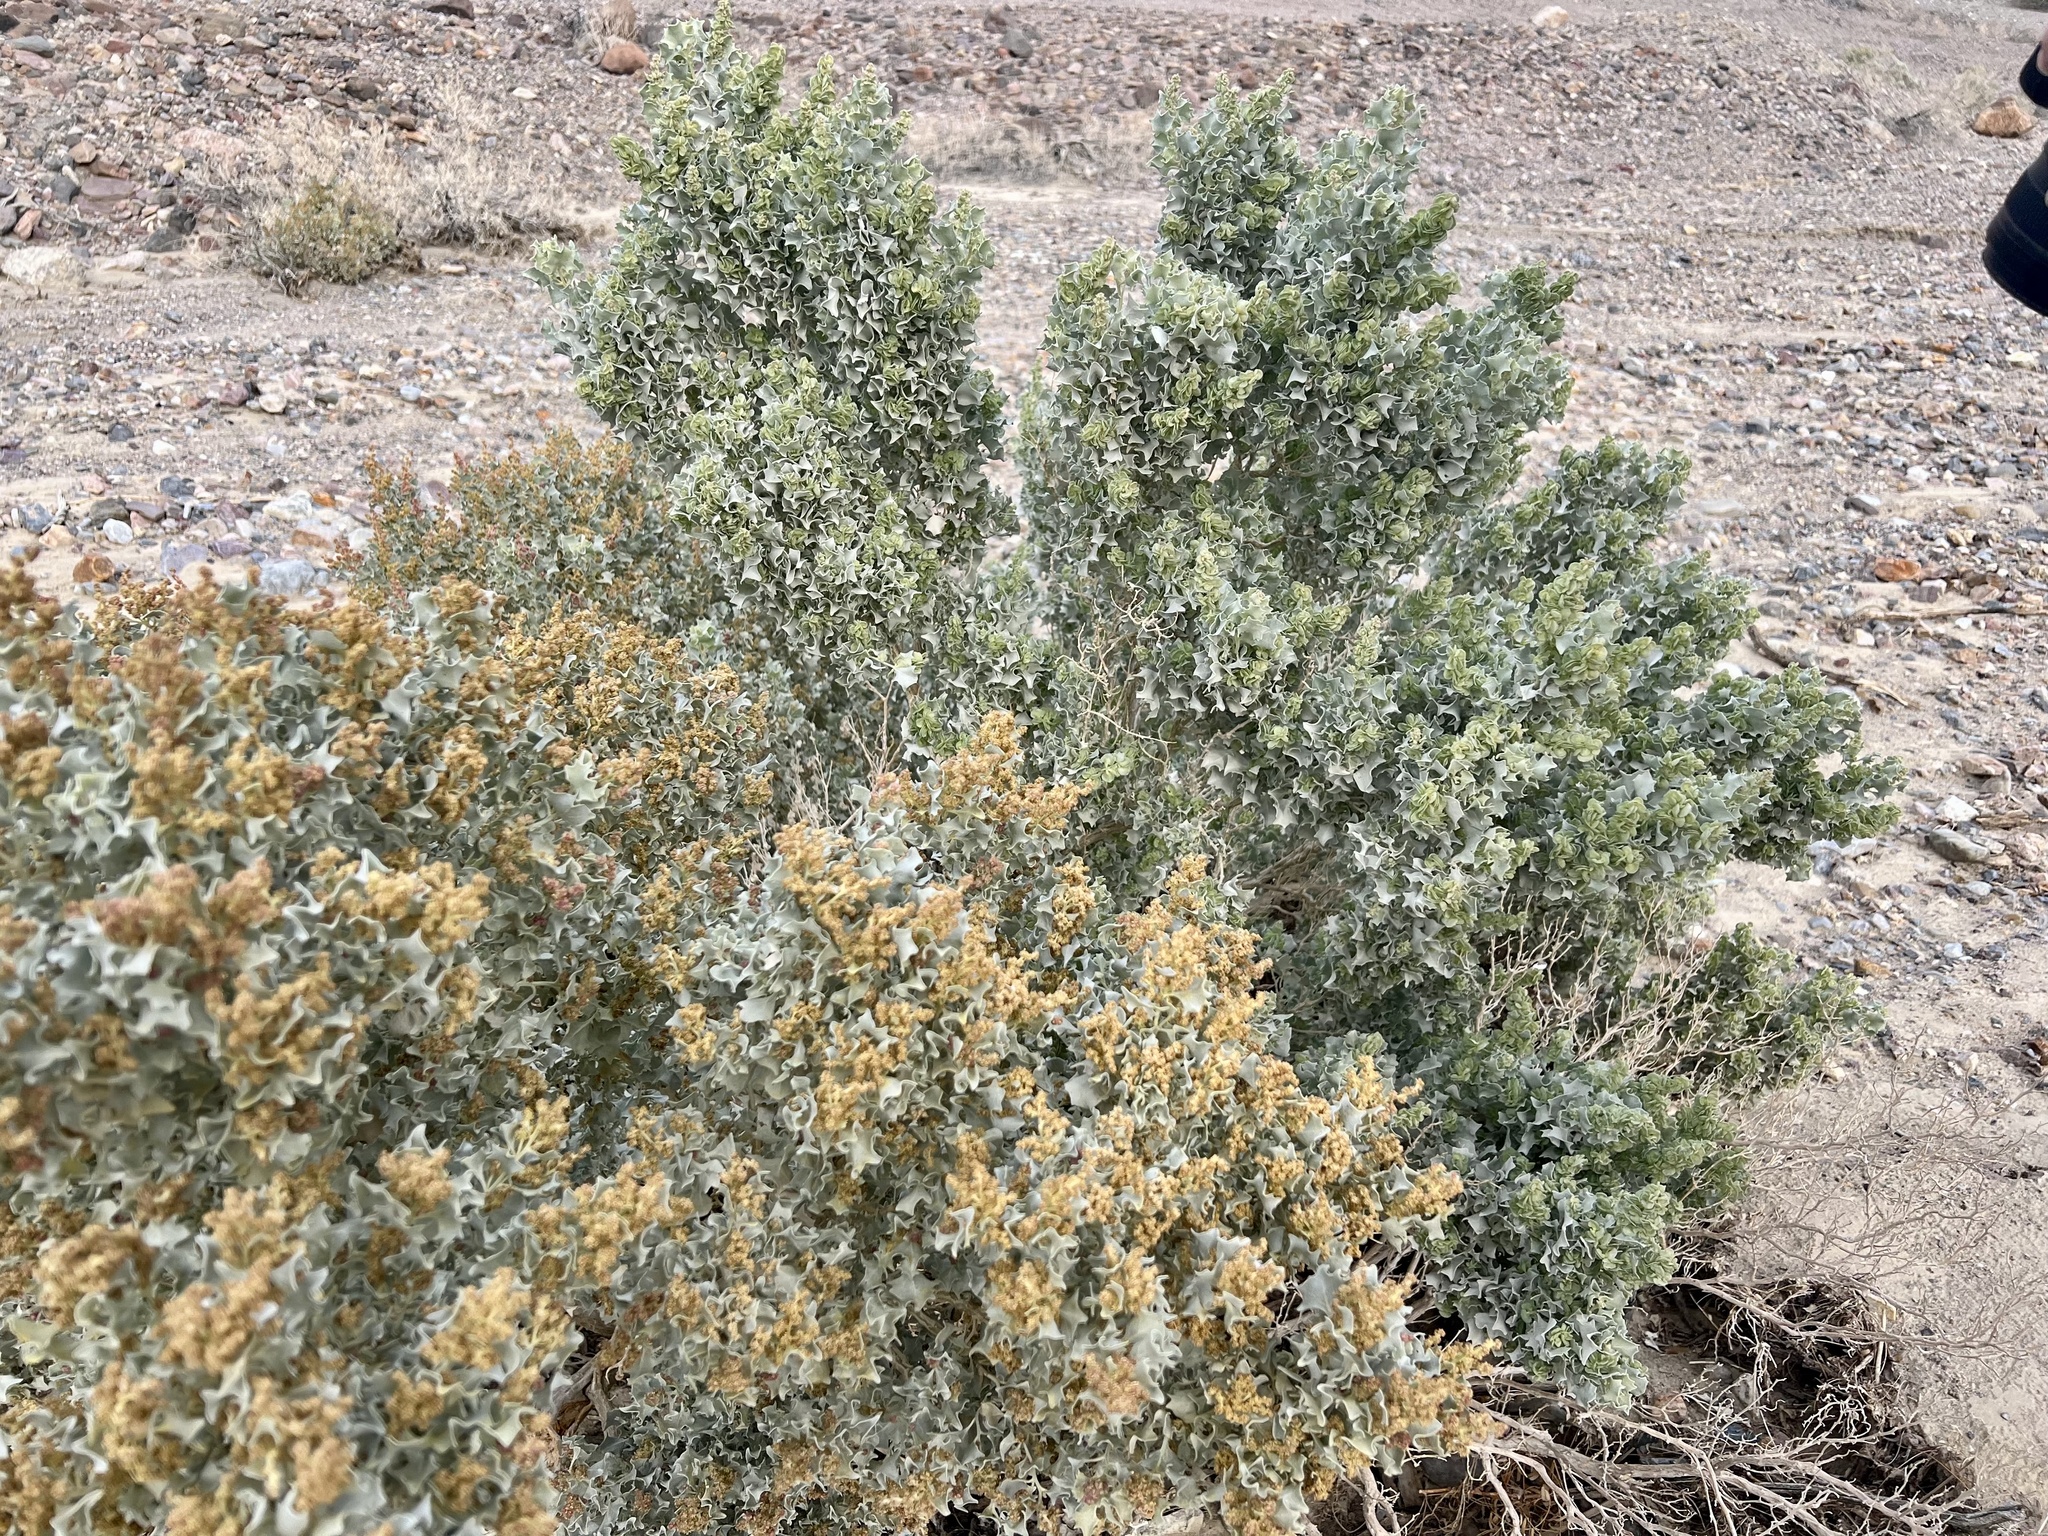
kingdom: Plantae
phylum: Tracheophyta
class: Magnoliopsida
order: Caryophyllales
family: Amaranthaceae
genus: Atriplex
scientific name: Atriplex hymenelytra
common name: Desert-holly
